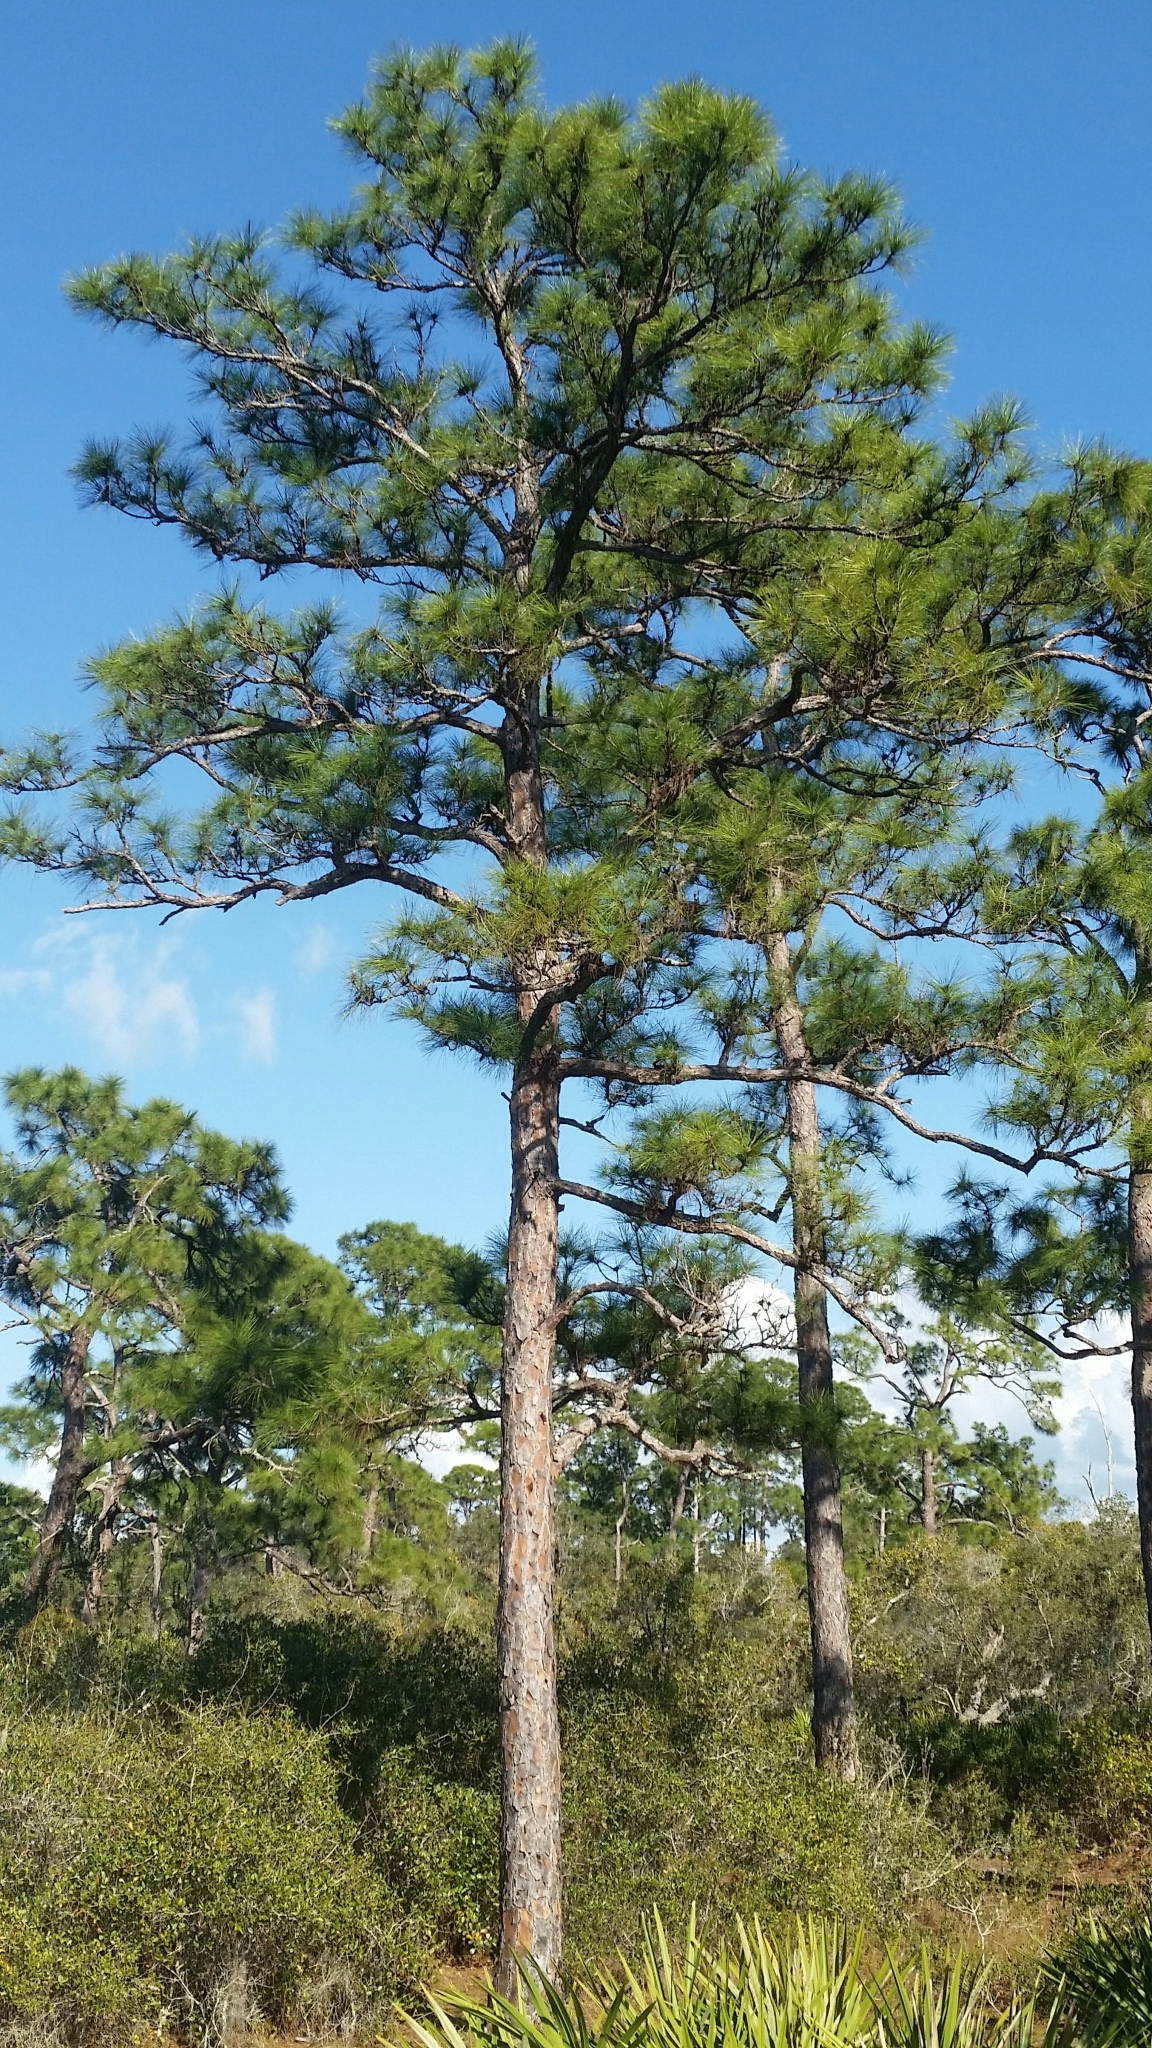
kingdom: Plantae
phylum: Tracheophyta
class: Pinopsida
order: Pinales
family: Pinaceae
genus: Pinus
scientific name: Pinus elliottii
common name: Slash pine
